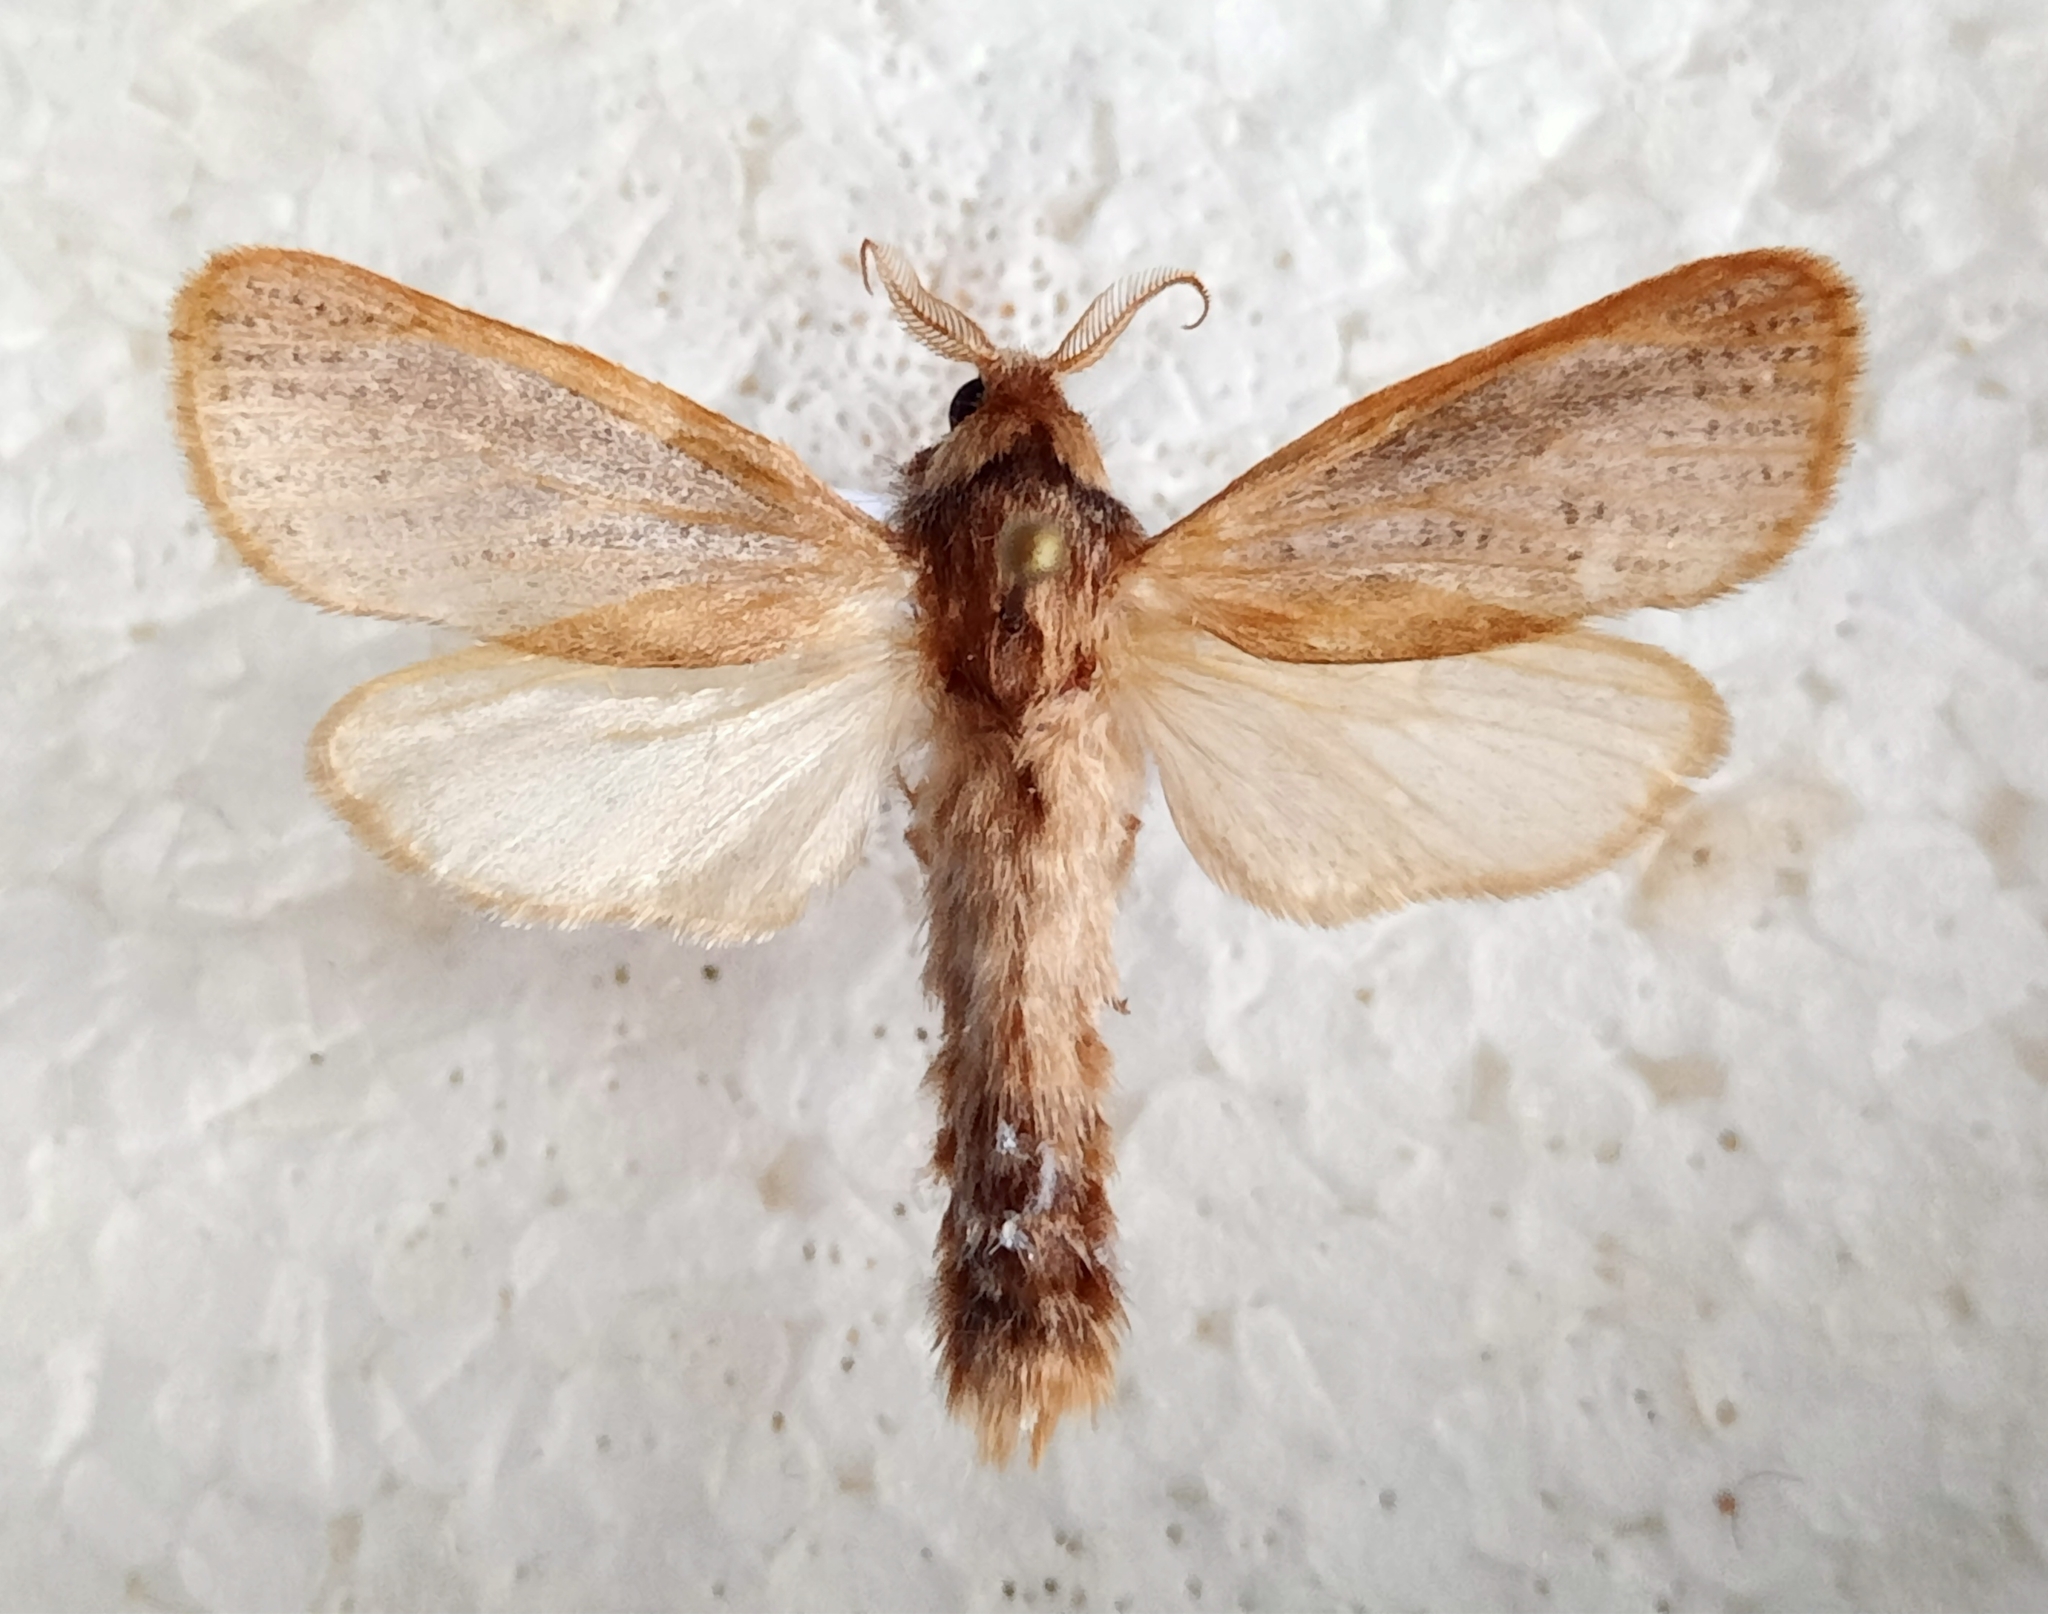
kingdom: Animalia
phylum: Arthropoda
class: Insecta
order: Lepidoptera
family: Cossidae
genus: Phragmataecia
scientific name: Phragmataecia castaneae
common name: Reed leopard
